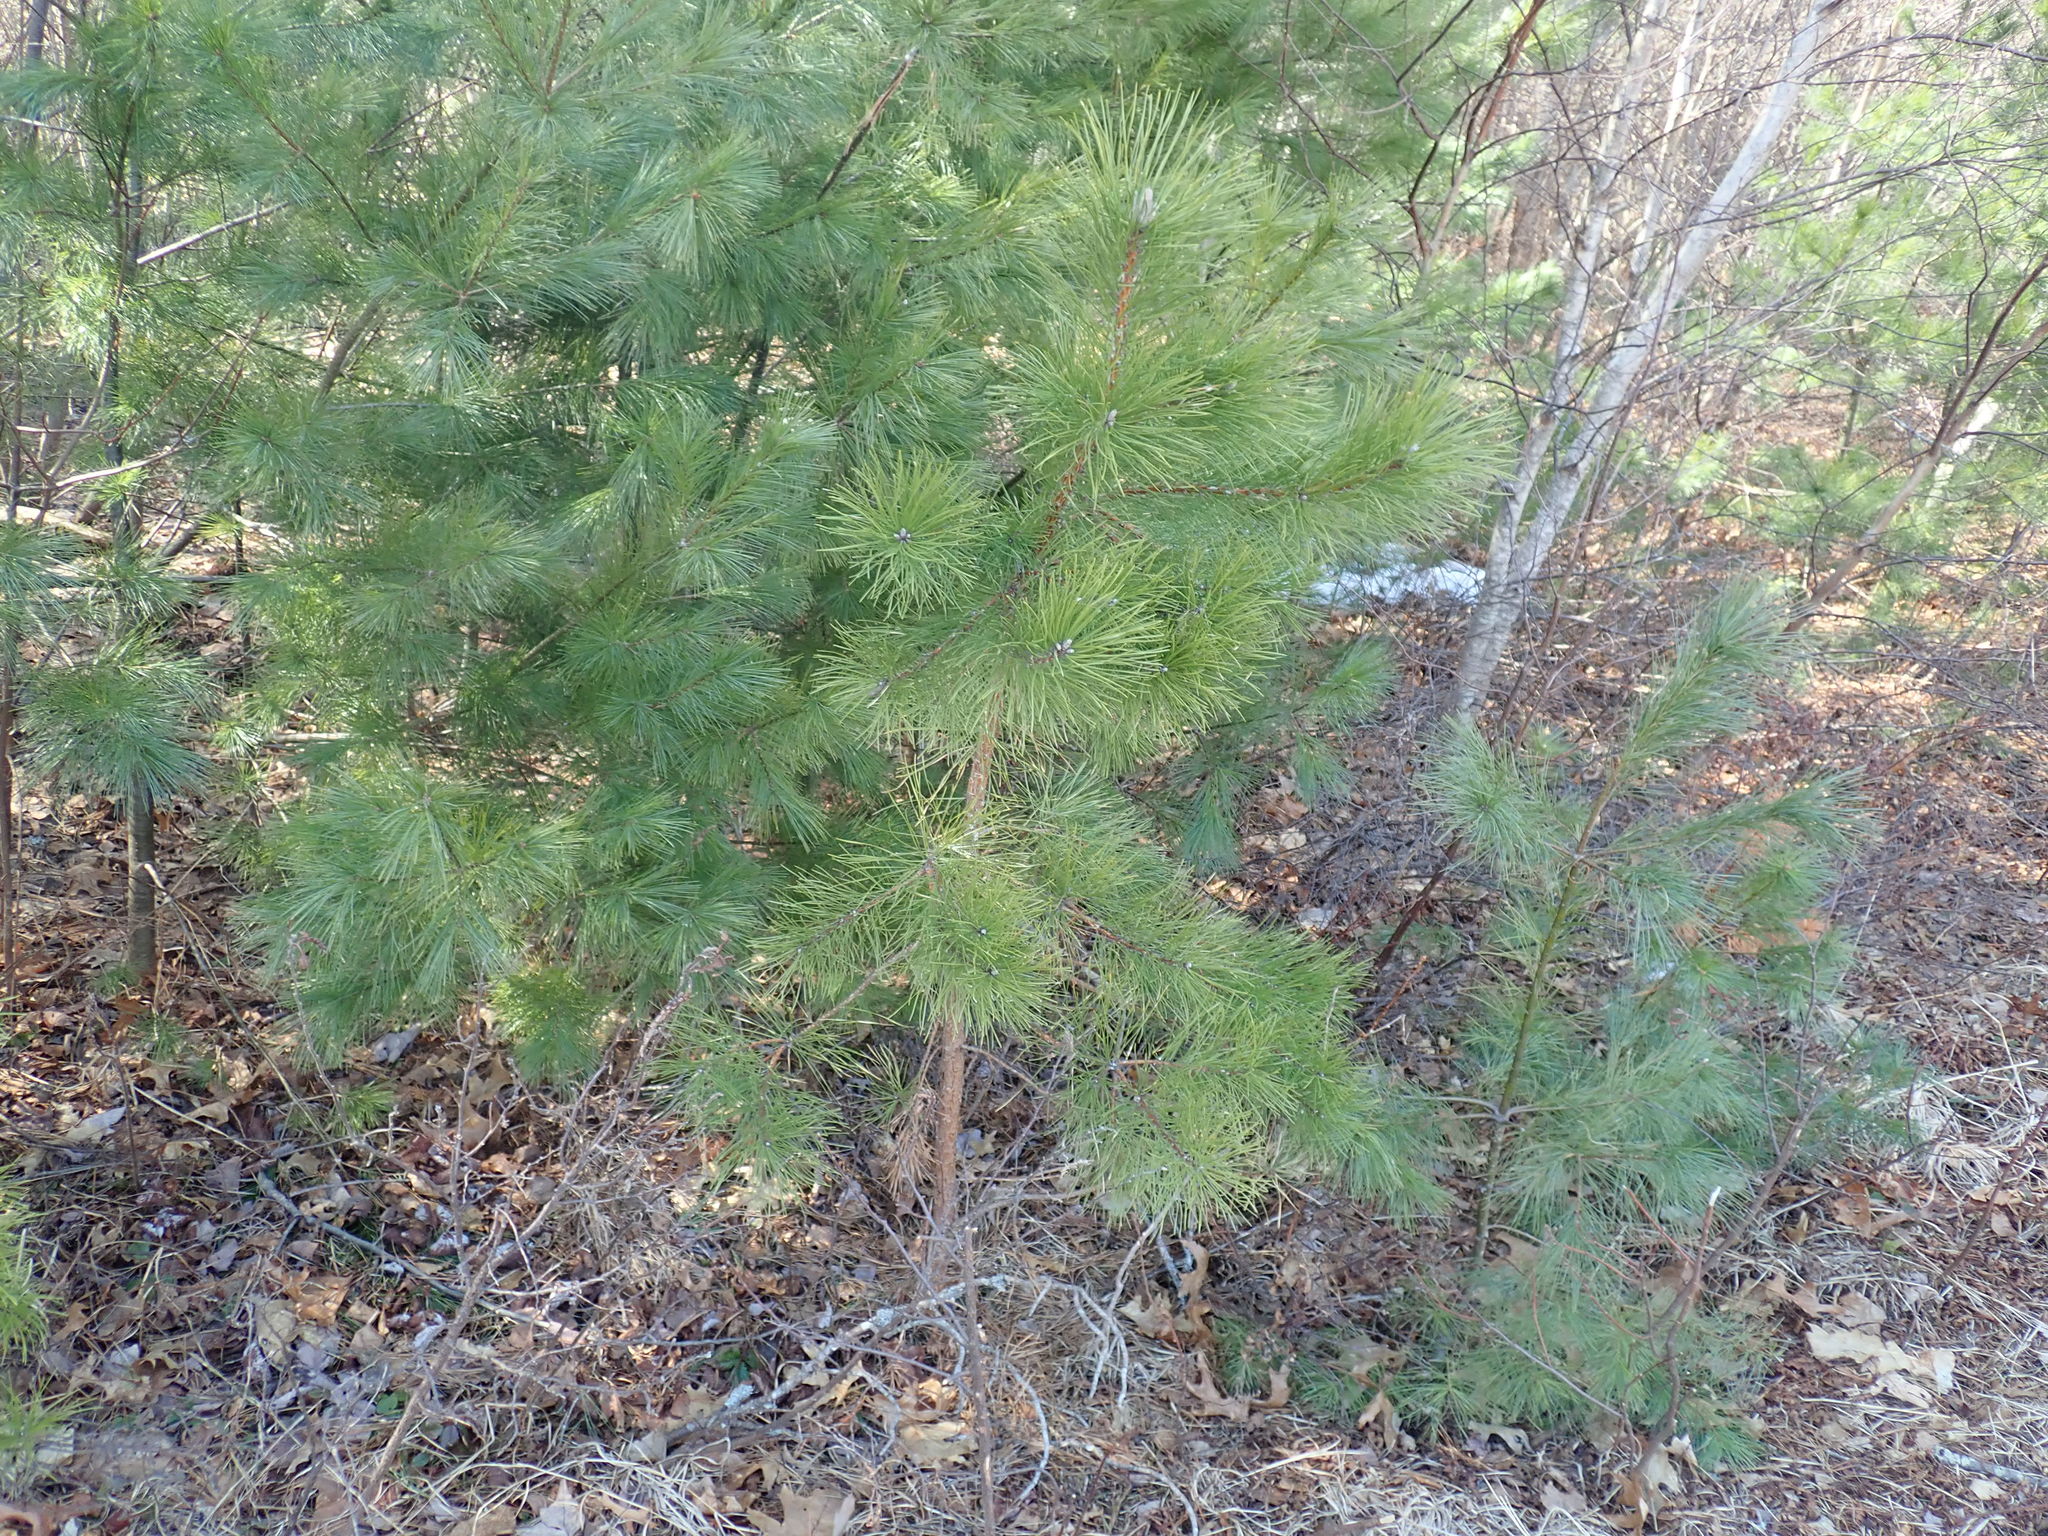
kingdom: Plantae
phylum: Tracheophyta
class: Pinopsida
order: Pinales
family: Pinaceae
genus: Pinus
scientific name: Pinus rigida
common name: Pitch pine
